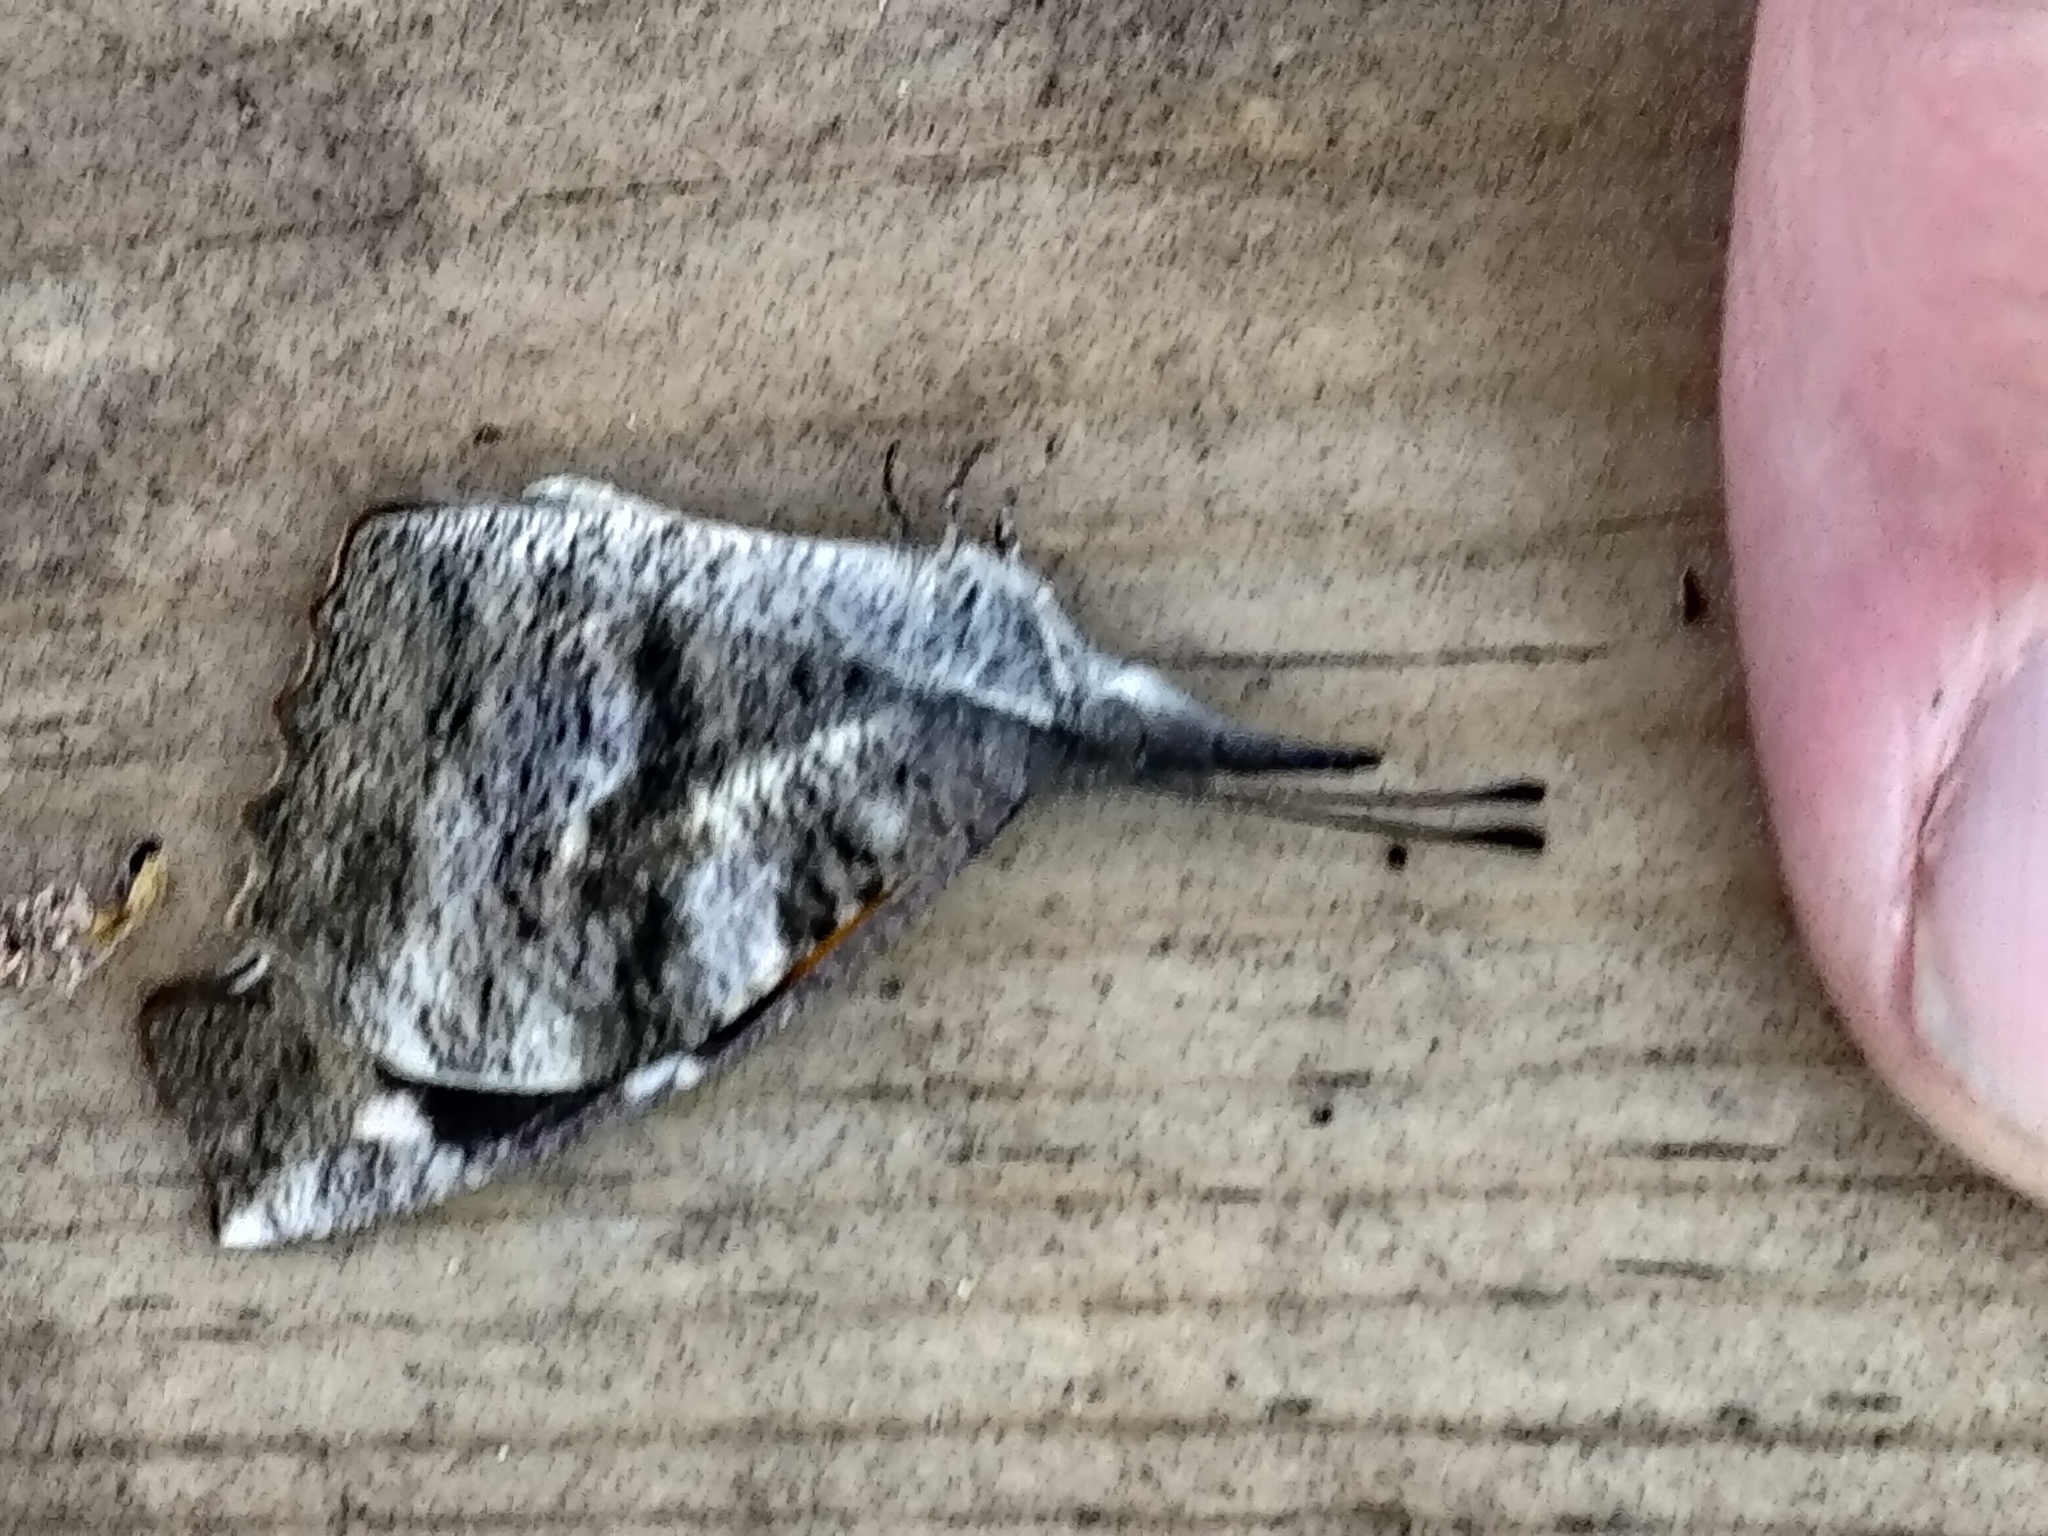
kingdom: Animalia
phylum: Arthropoda
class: Insecta
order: Lepidoptera
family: Nymphalidae
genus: Libytheana
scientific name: Libytheana carinenta
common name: American snout
